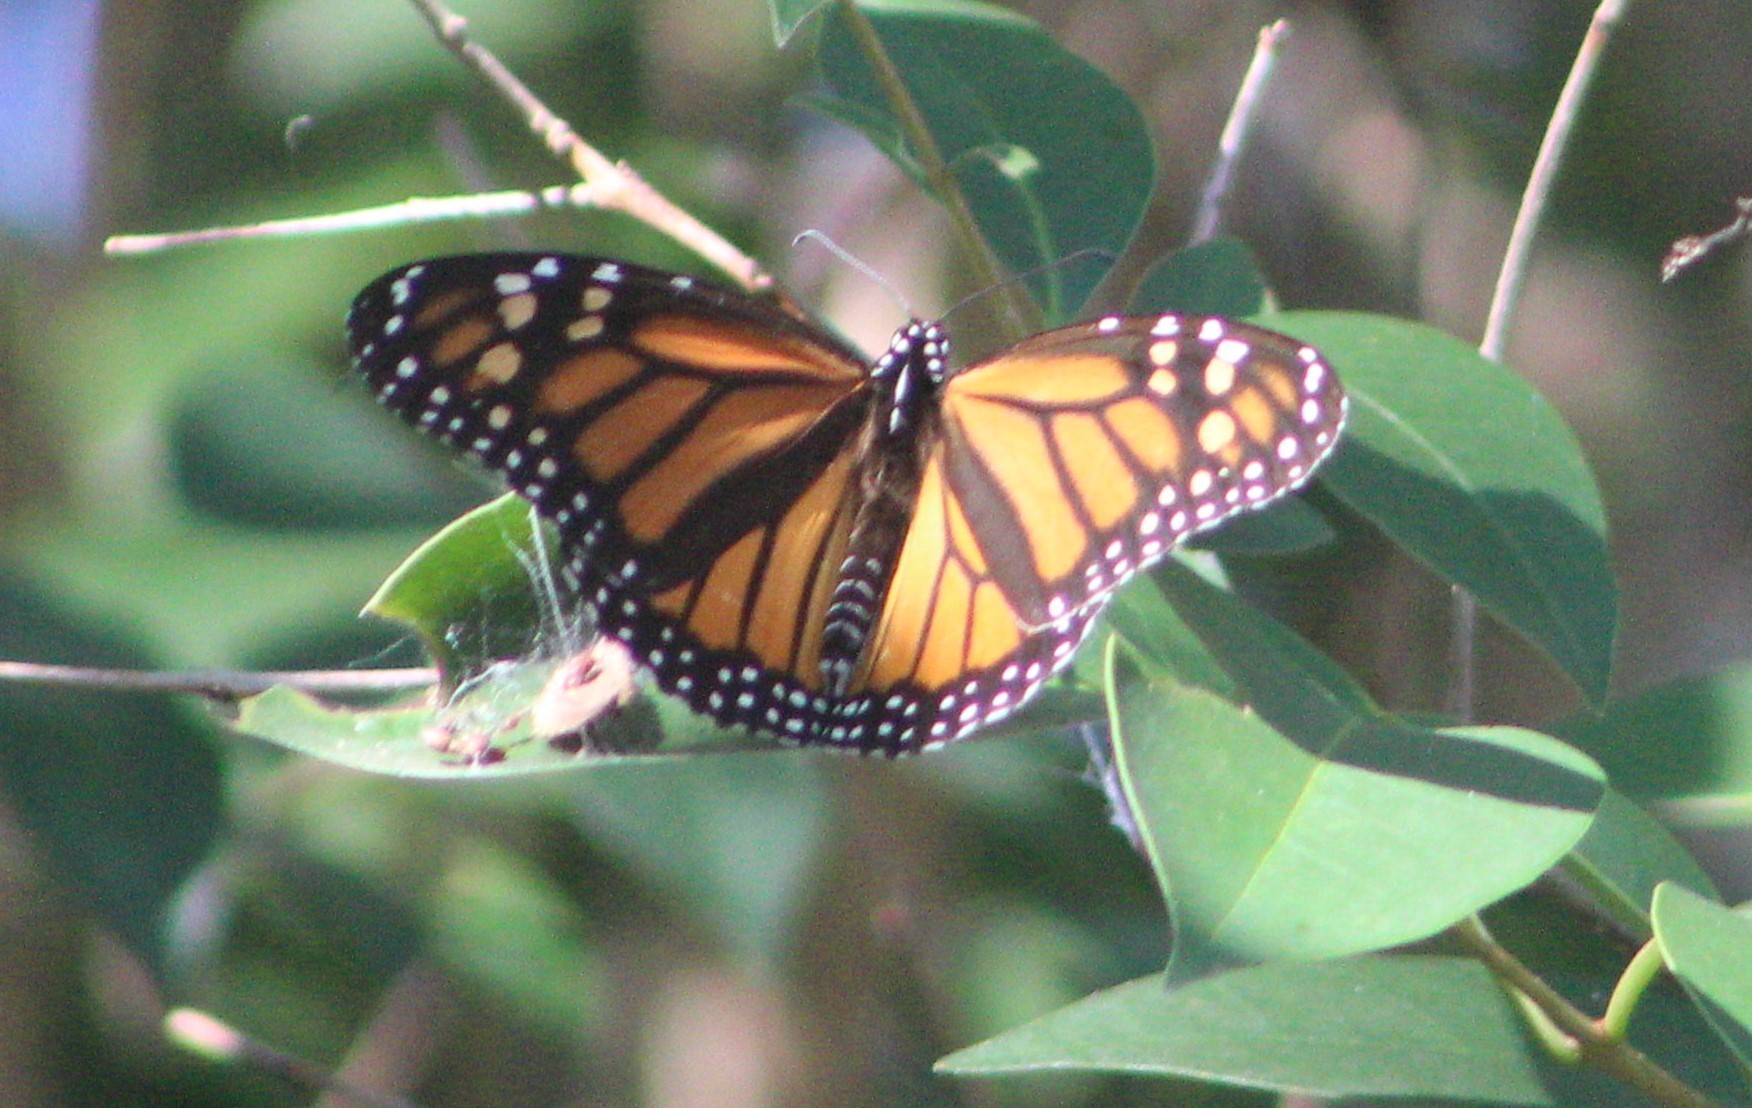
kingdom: Animalia
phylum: Arthropoda
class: Insecta
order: Lepidoptera
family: Nymphalidae
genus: Danaus
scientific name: Danaus plexippus
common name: Monarch
